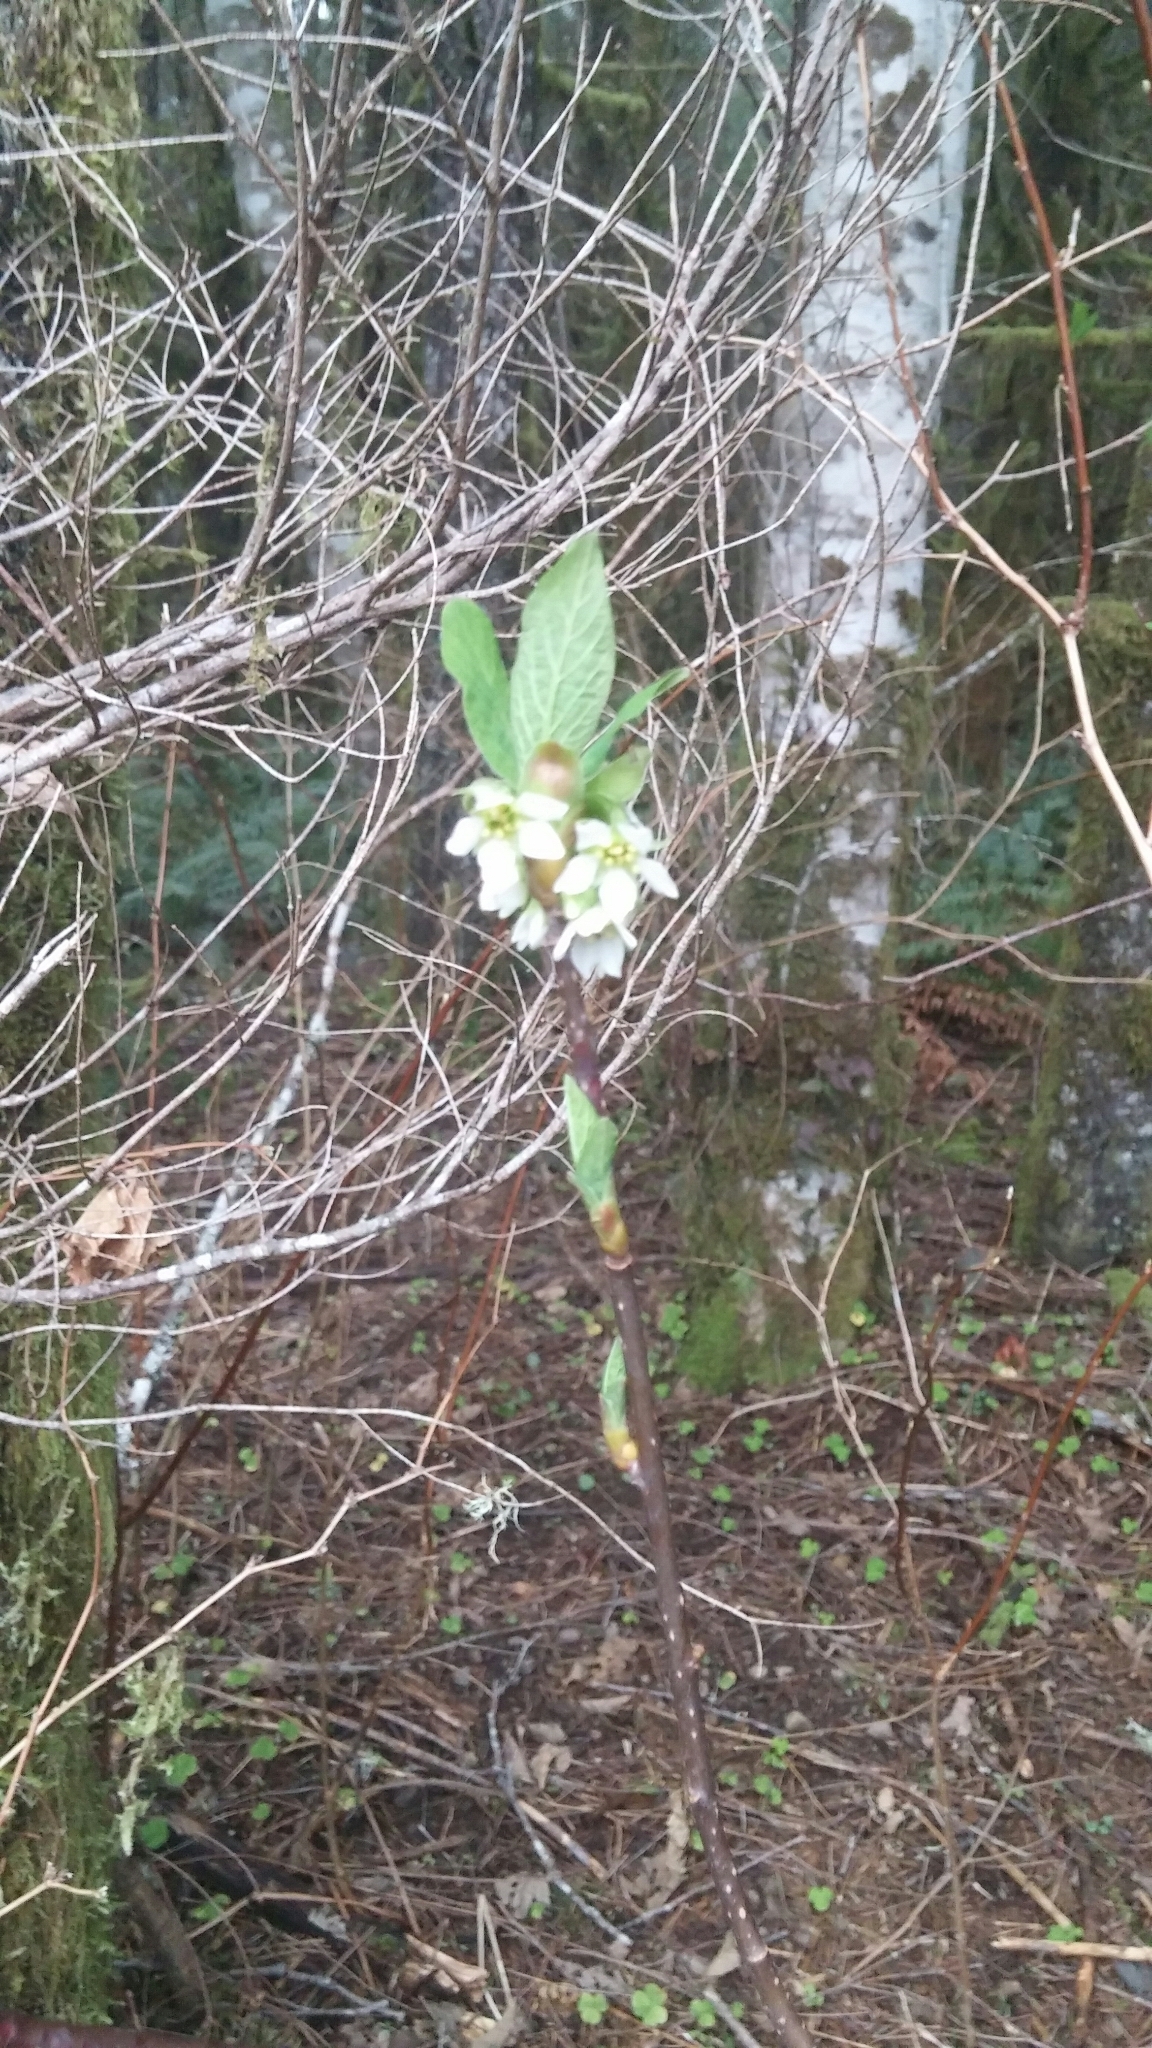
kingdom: Plantae
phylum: Tracheophyta
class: Magnoliopsida
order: Rosales
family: Rosaceae
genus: Oemleria
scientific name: Oemleria cerasiformis
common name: Osoberry
